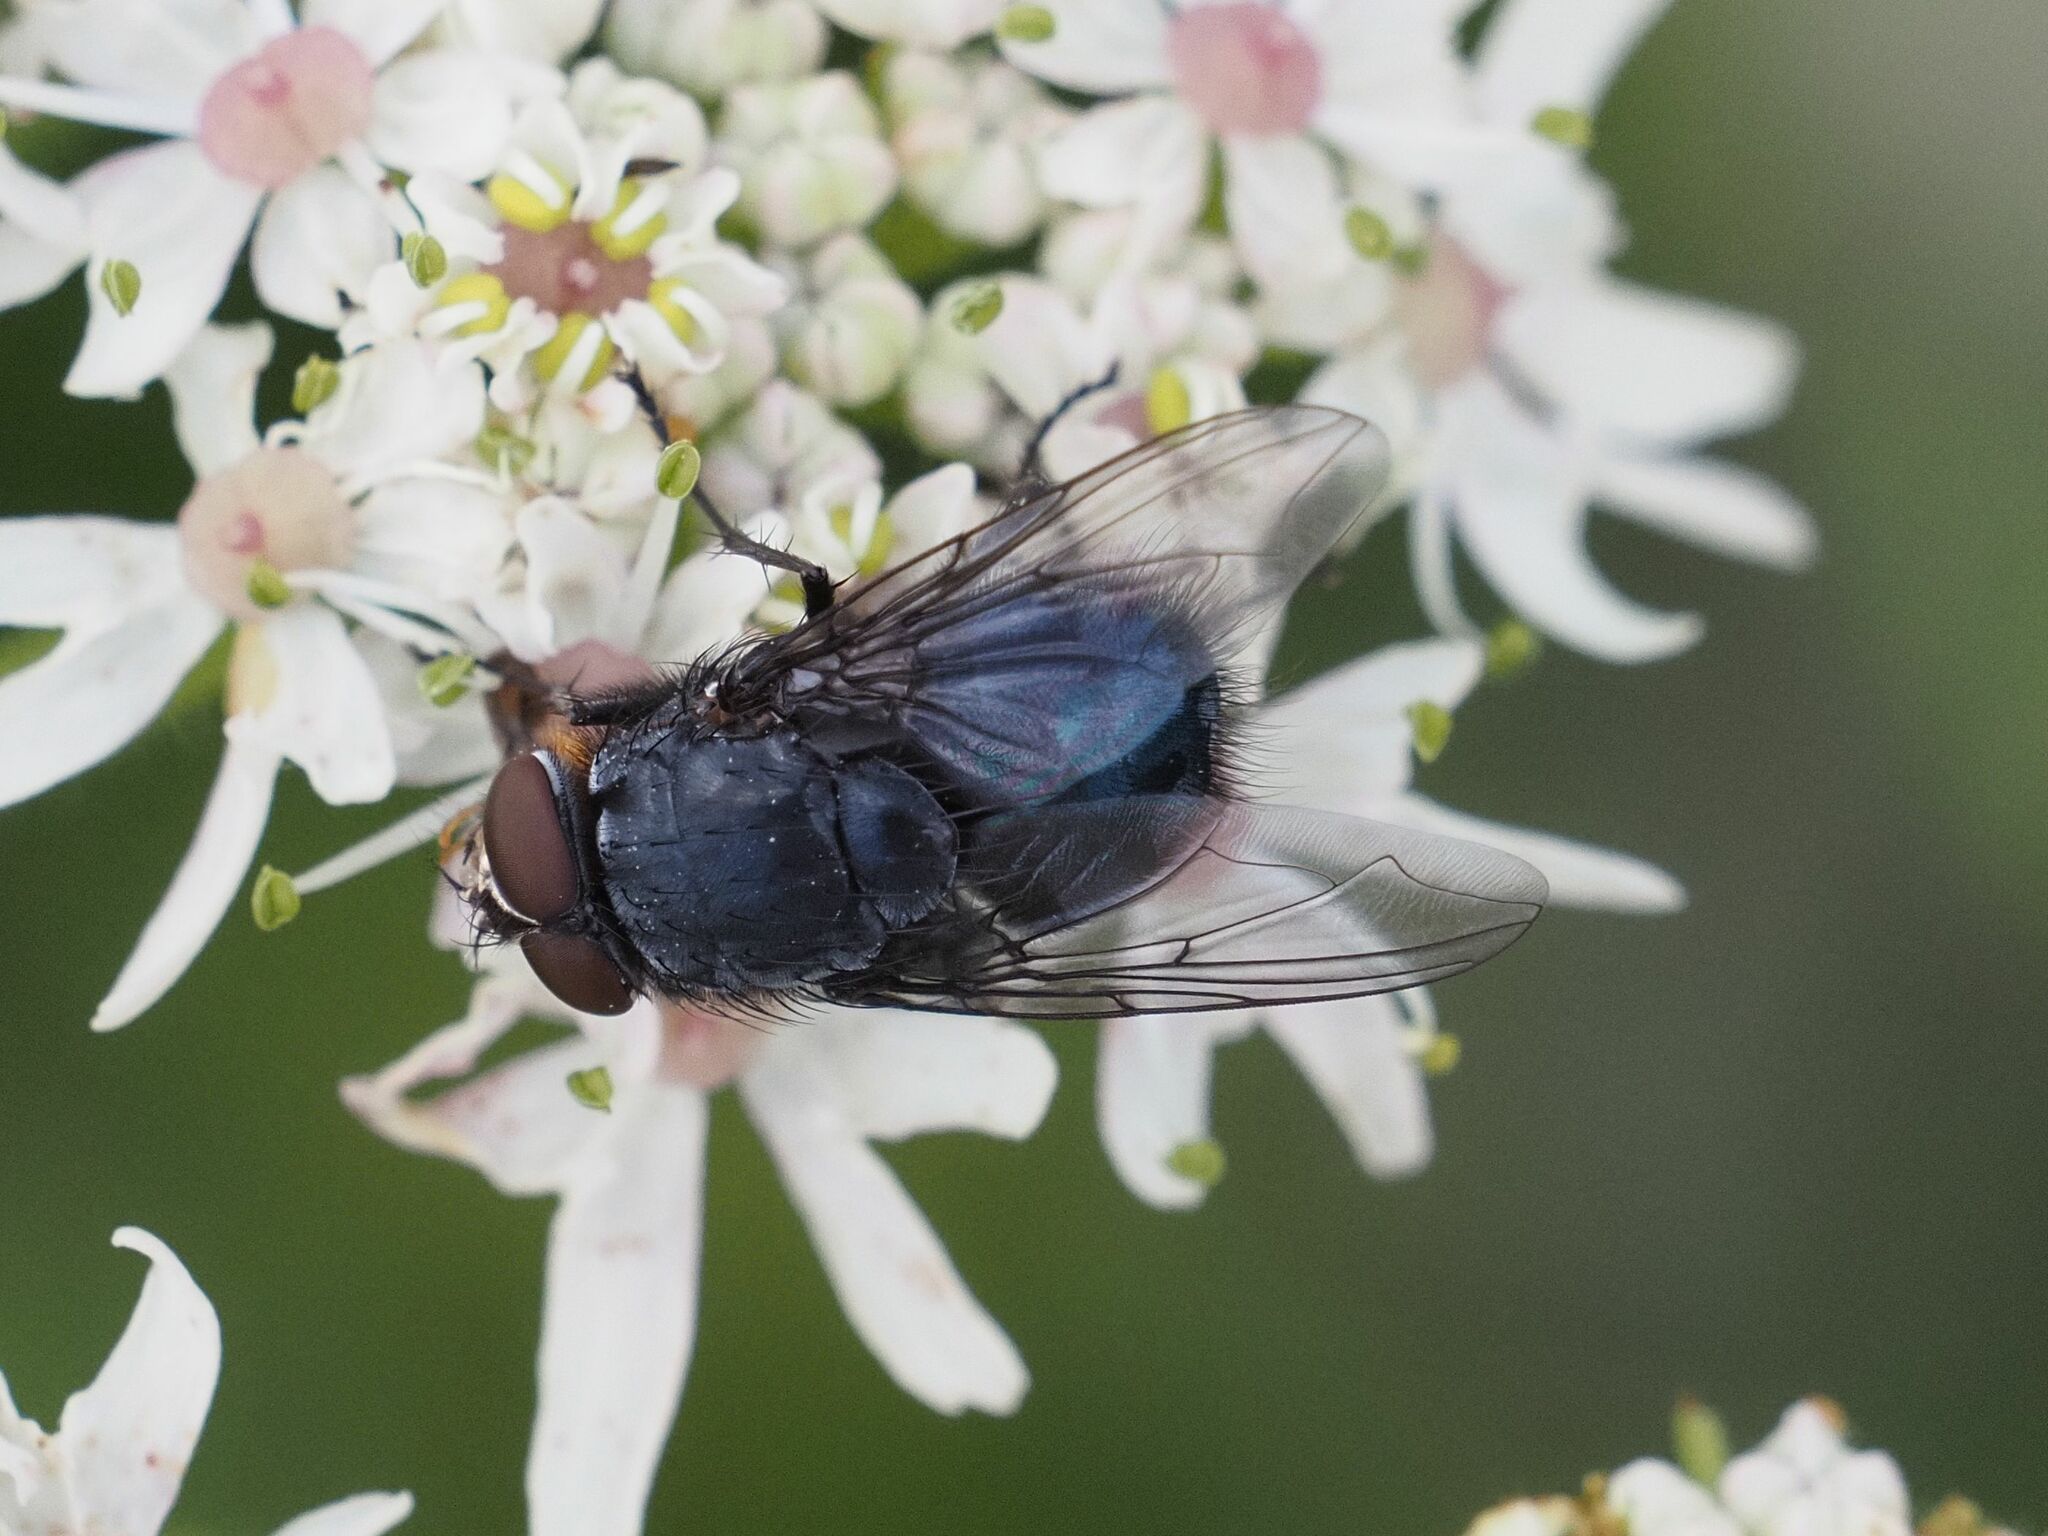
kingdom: Animalia
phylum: Arthropoda
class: Insecta
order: Diptera
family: Calliphoridae
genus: Calliphora
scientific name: Calliphora vomitoria
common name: Blue bottle fly
